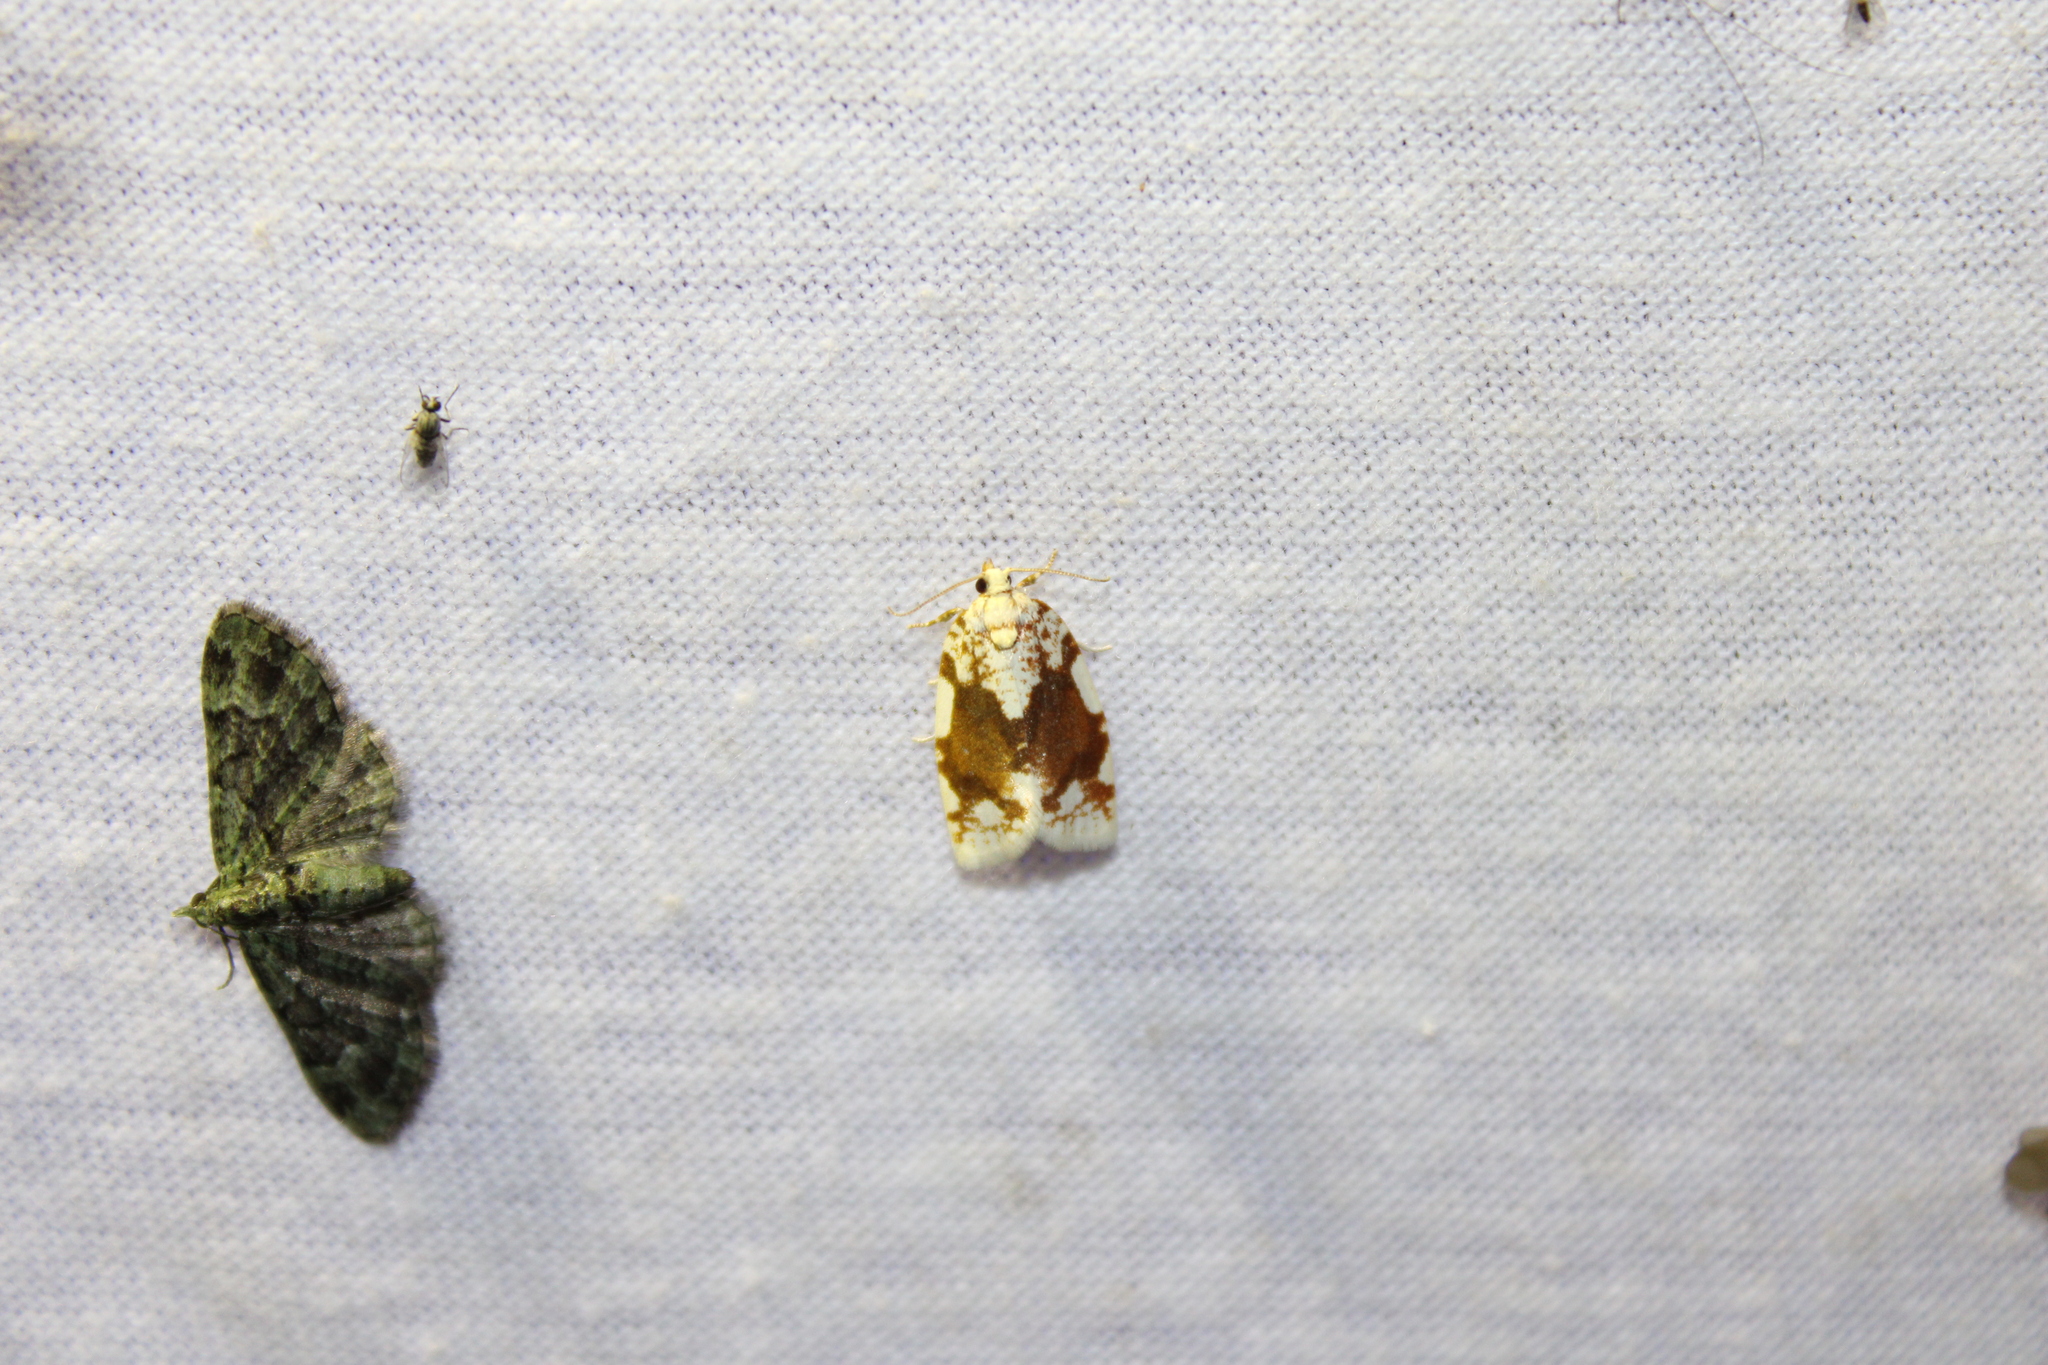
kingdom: Animalia
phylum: Arthropoda
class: Insecta
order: Lepidoptera
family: Tortricidae
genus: Argyrotaenia
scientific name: Argyrotaenia alisellana
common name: White-spotted leafroller moth
